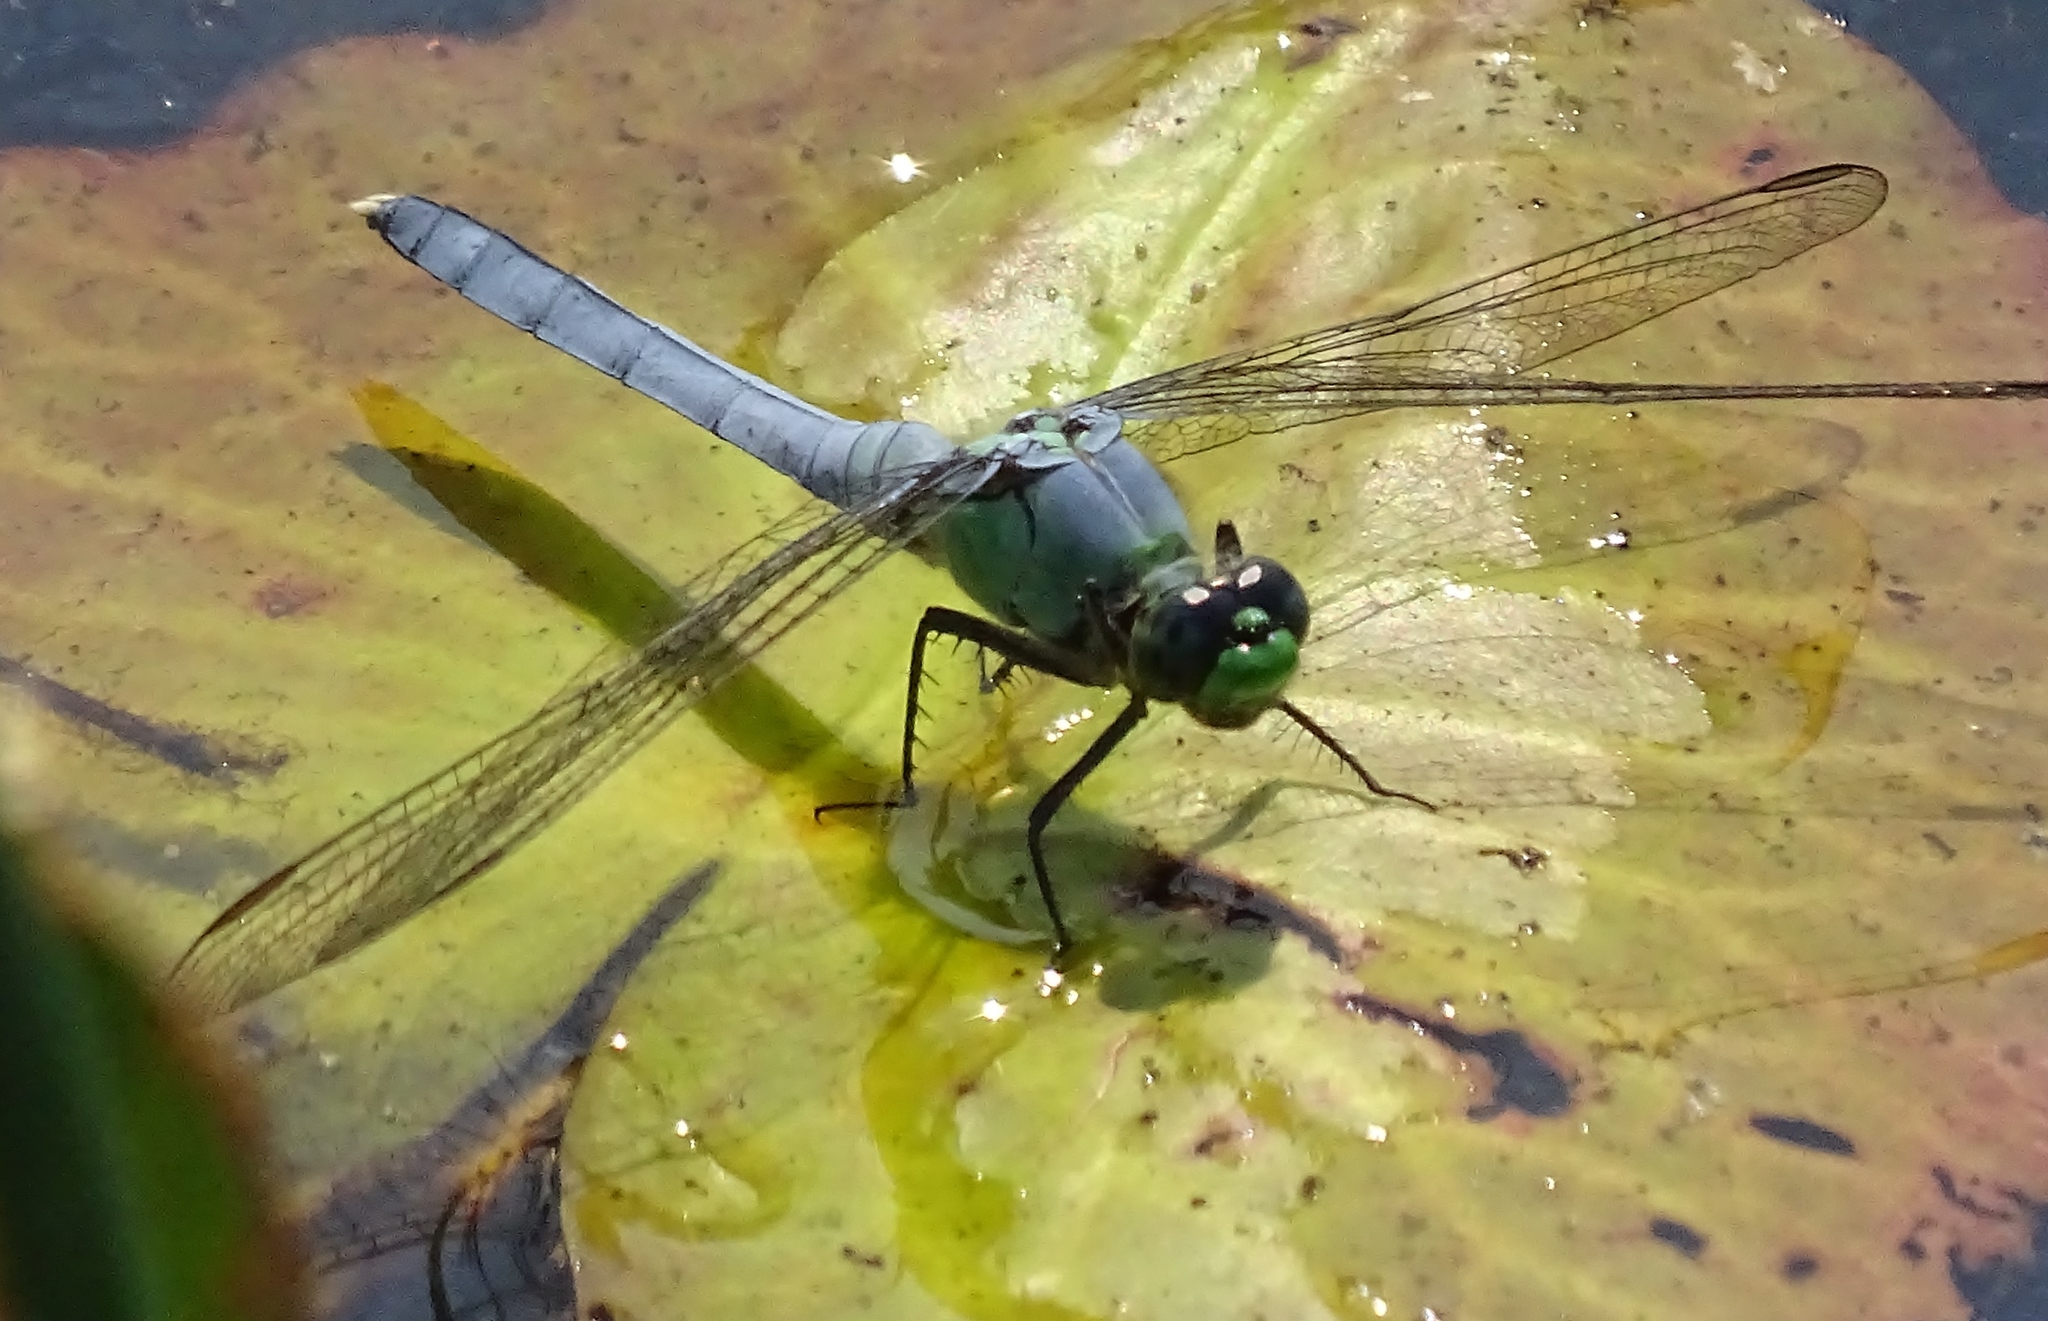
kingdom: Animalia
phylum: Arthropoda
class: Insecta
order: Odonata
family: Libellulidae
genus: Erythemis
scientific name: Erythemis simplicicollis
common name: Eastern pondhawk
